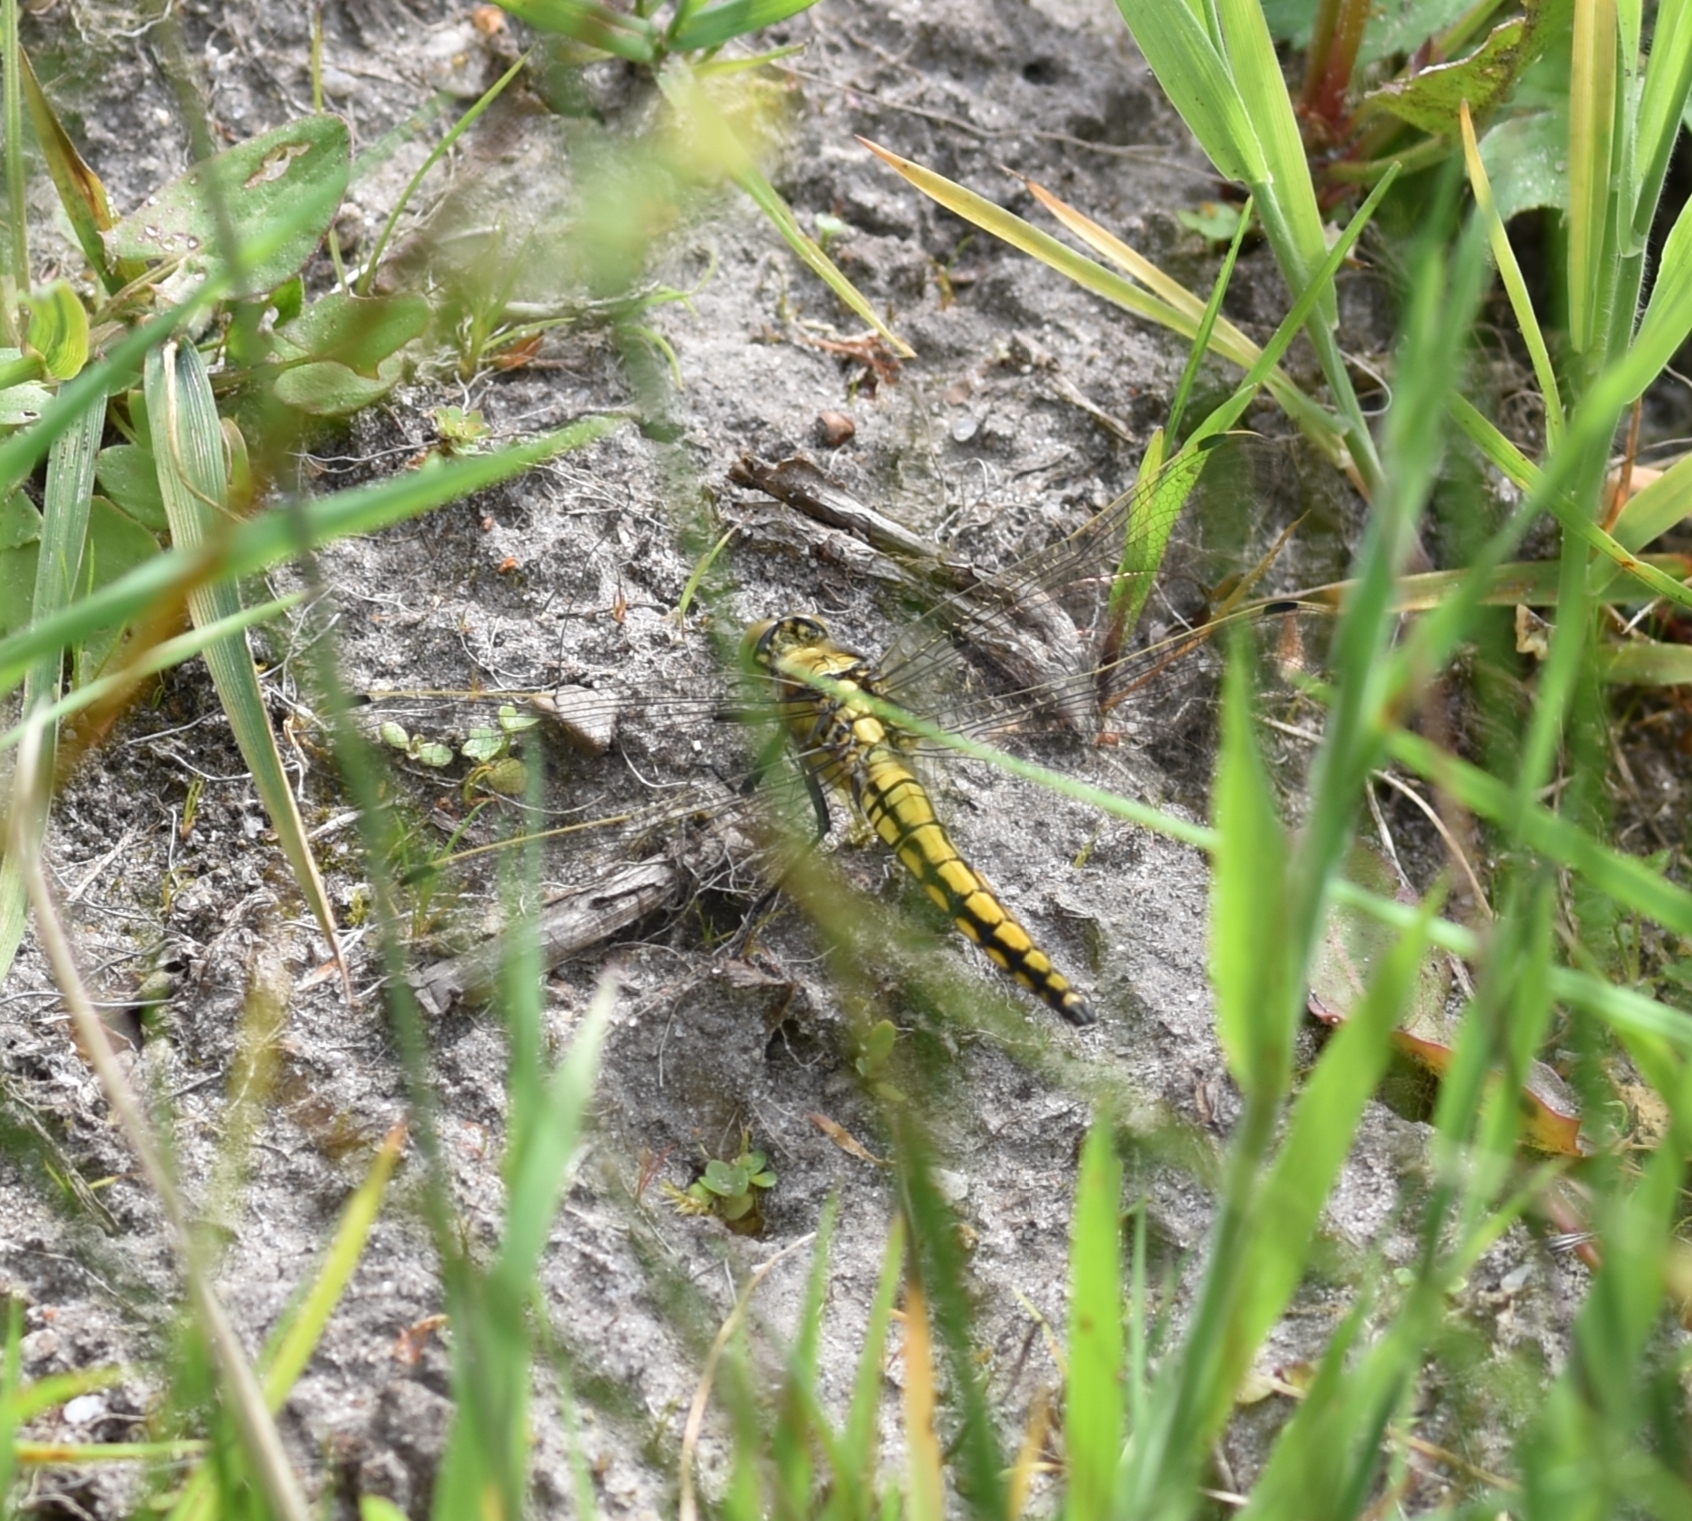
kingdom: Animalia
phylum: Arthropoda
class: Insecta
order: Odonata
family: Libellulidae
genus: Orthetrum
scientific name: Orthetrum cancellatum
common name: Black-tailed skimmer
